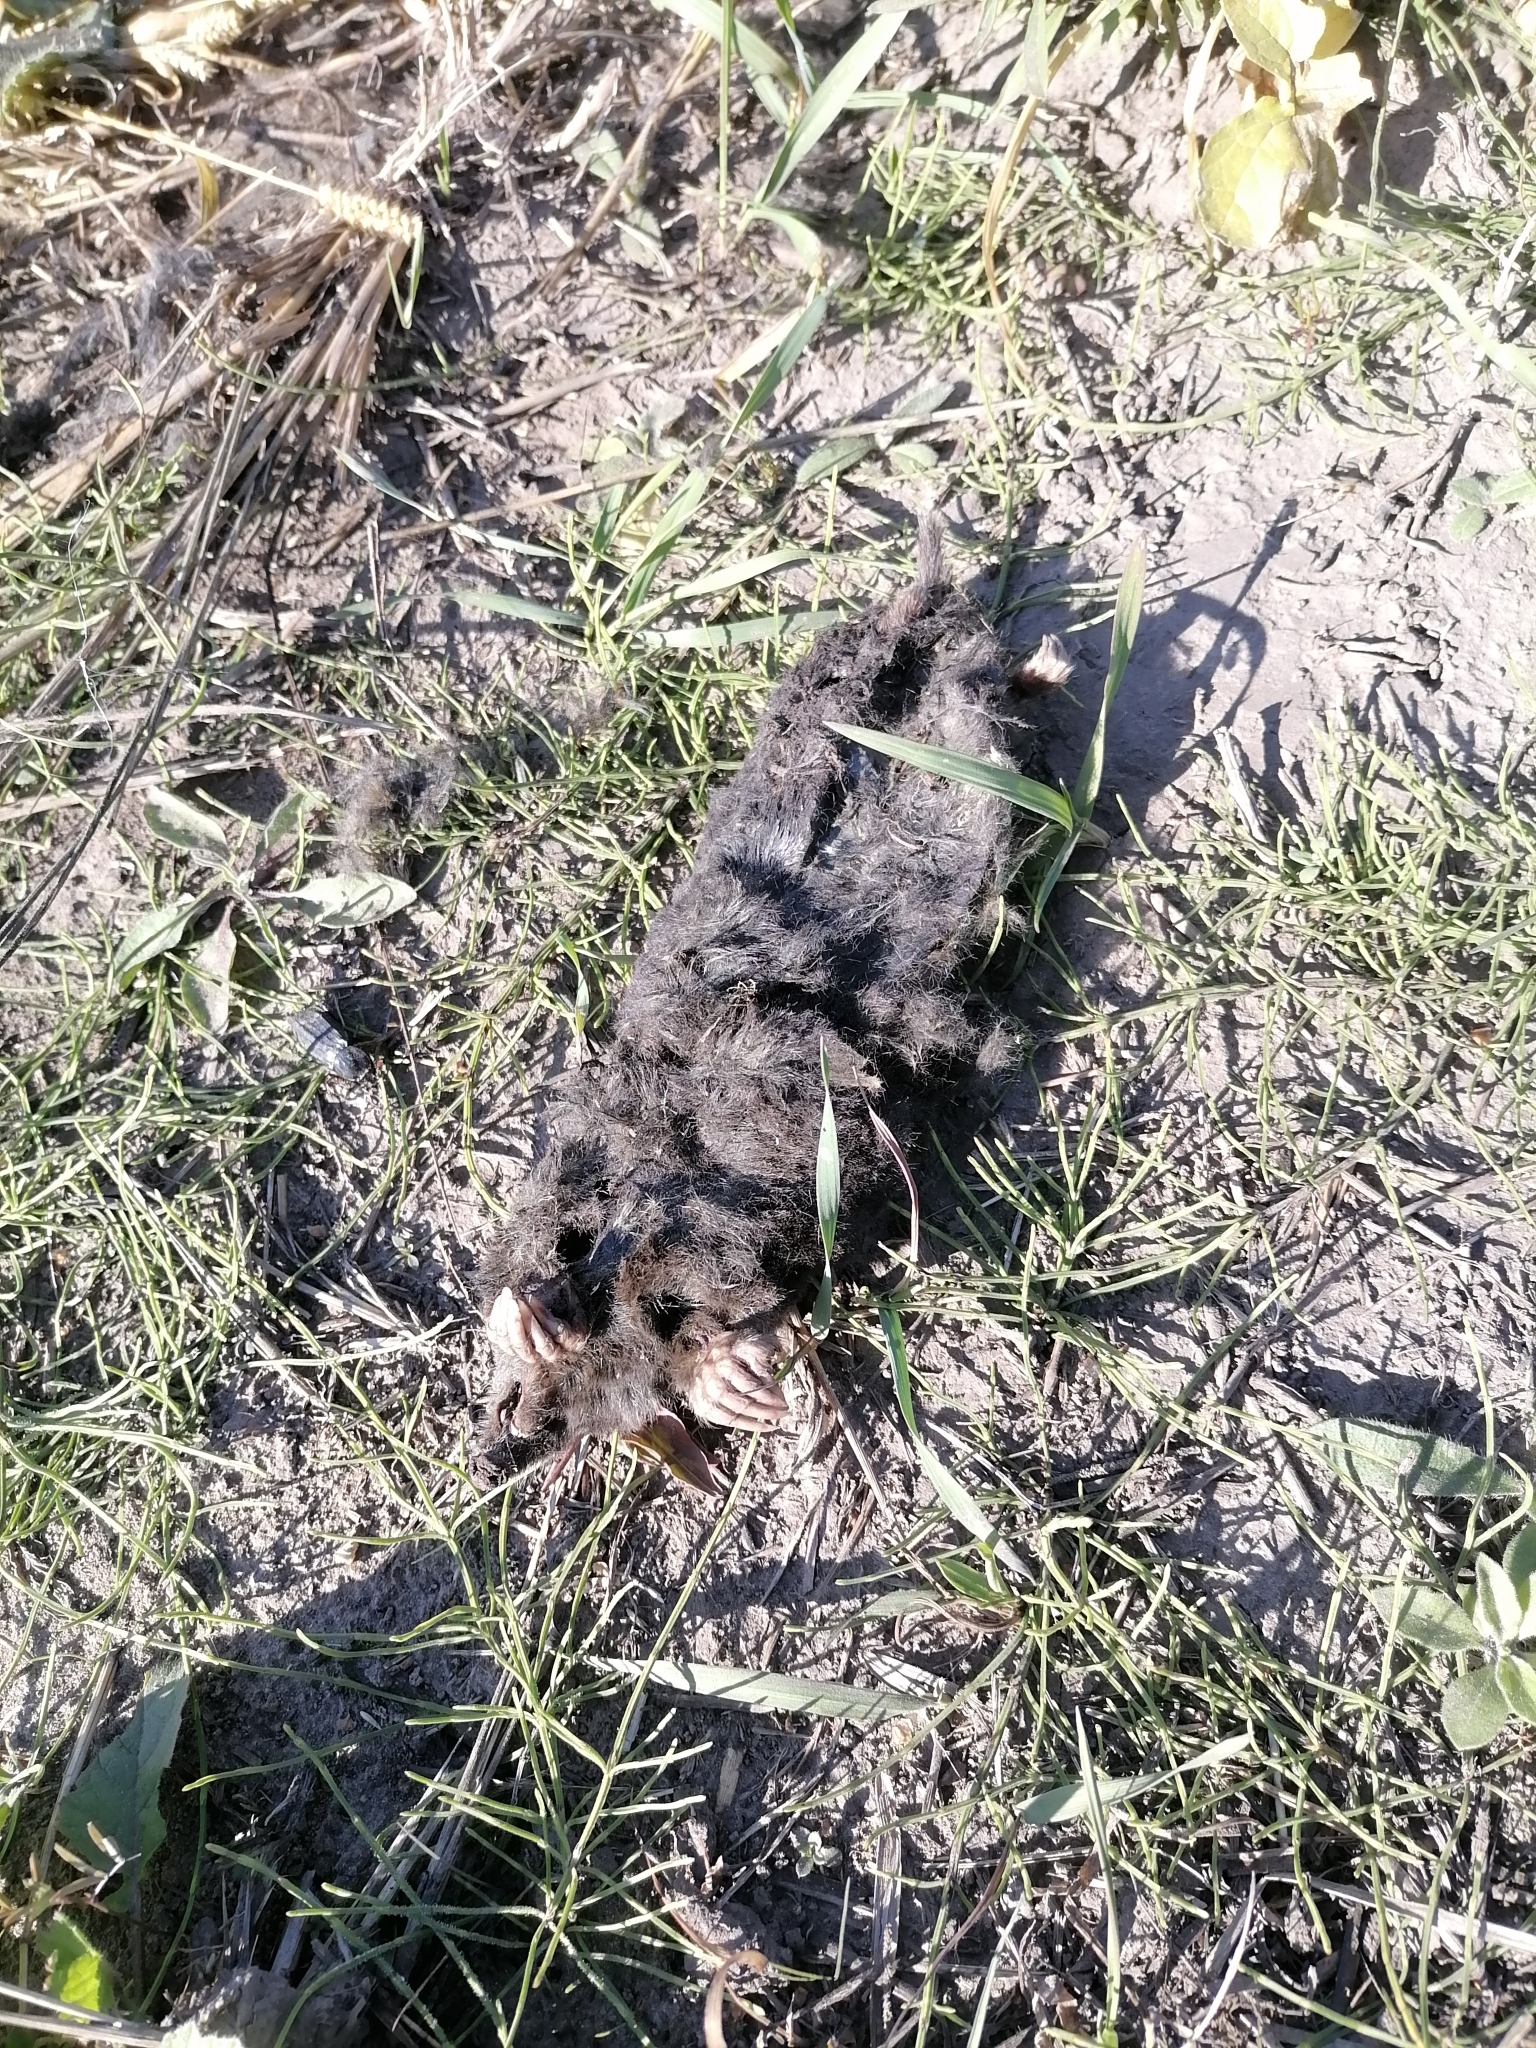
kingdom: Animalia
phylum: Chordata
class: Mammalia
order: Soricomorpha
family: Talpidae
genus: Talpa
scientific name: Talpa altaica
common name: Altai mole
